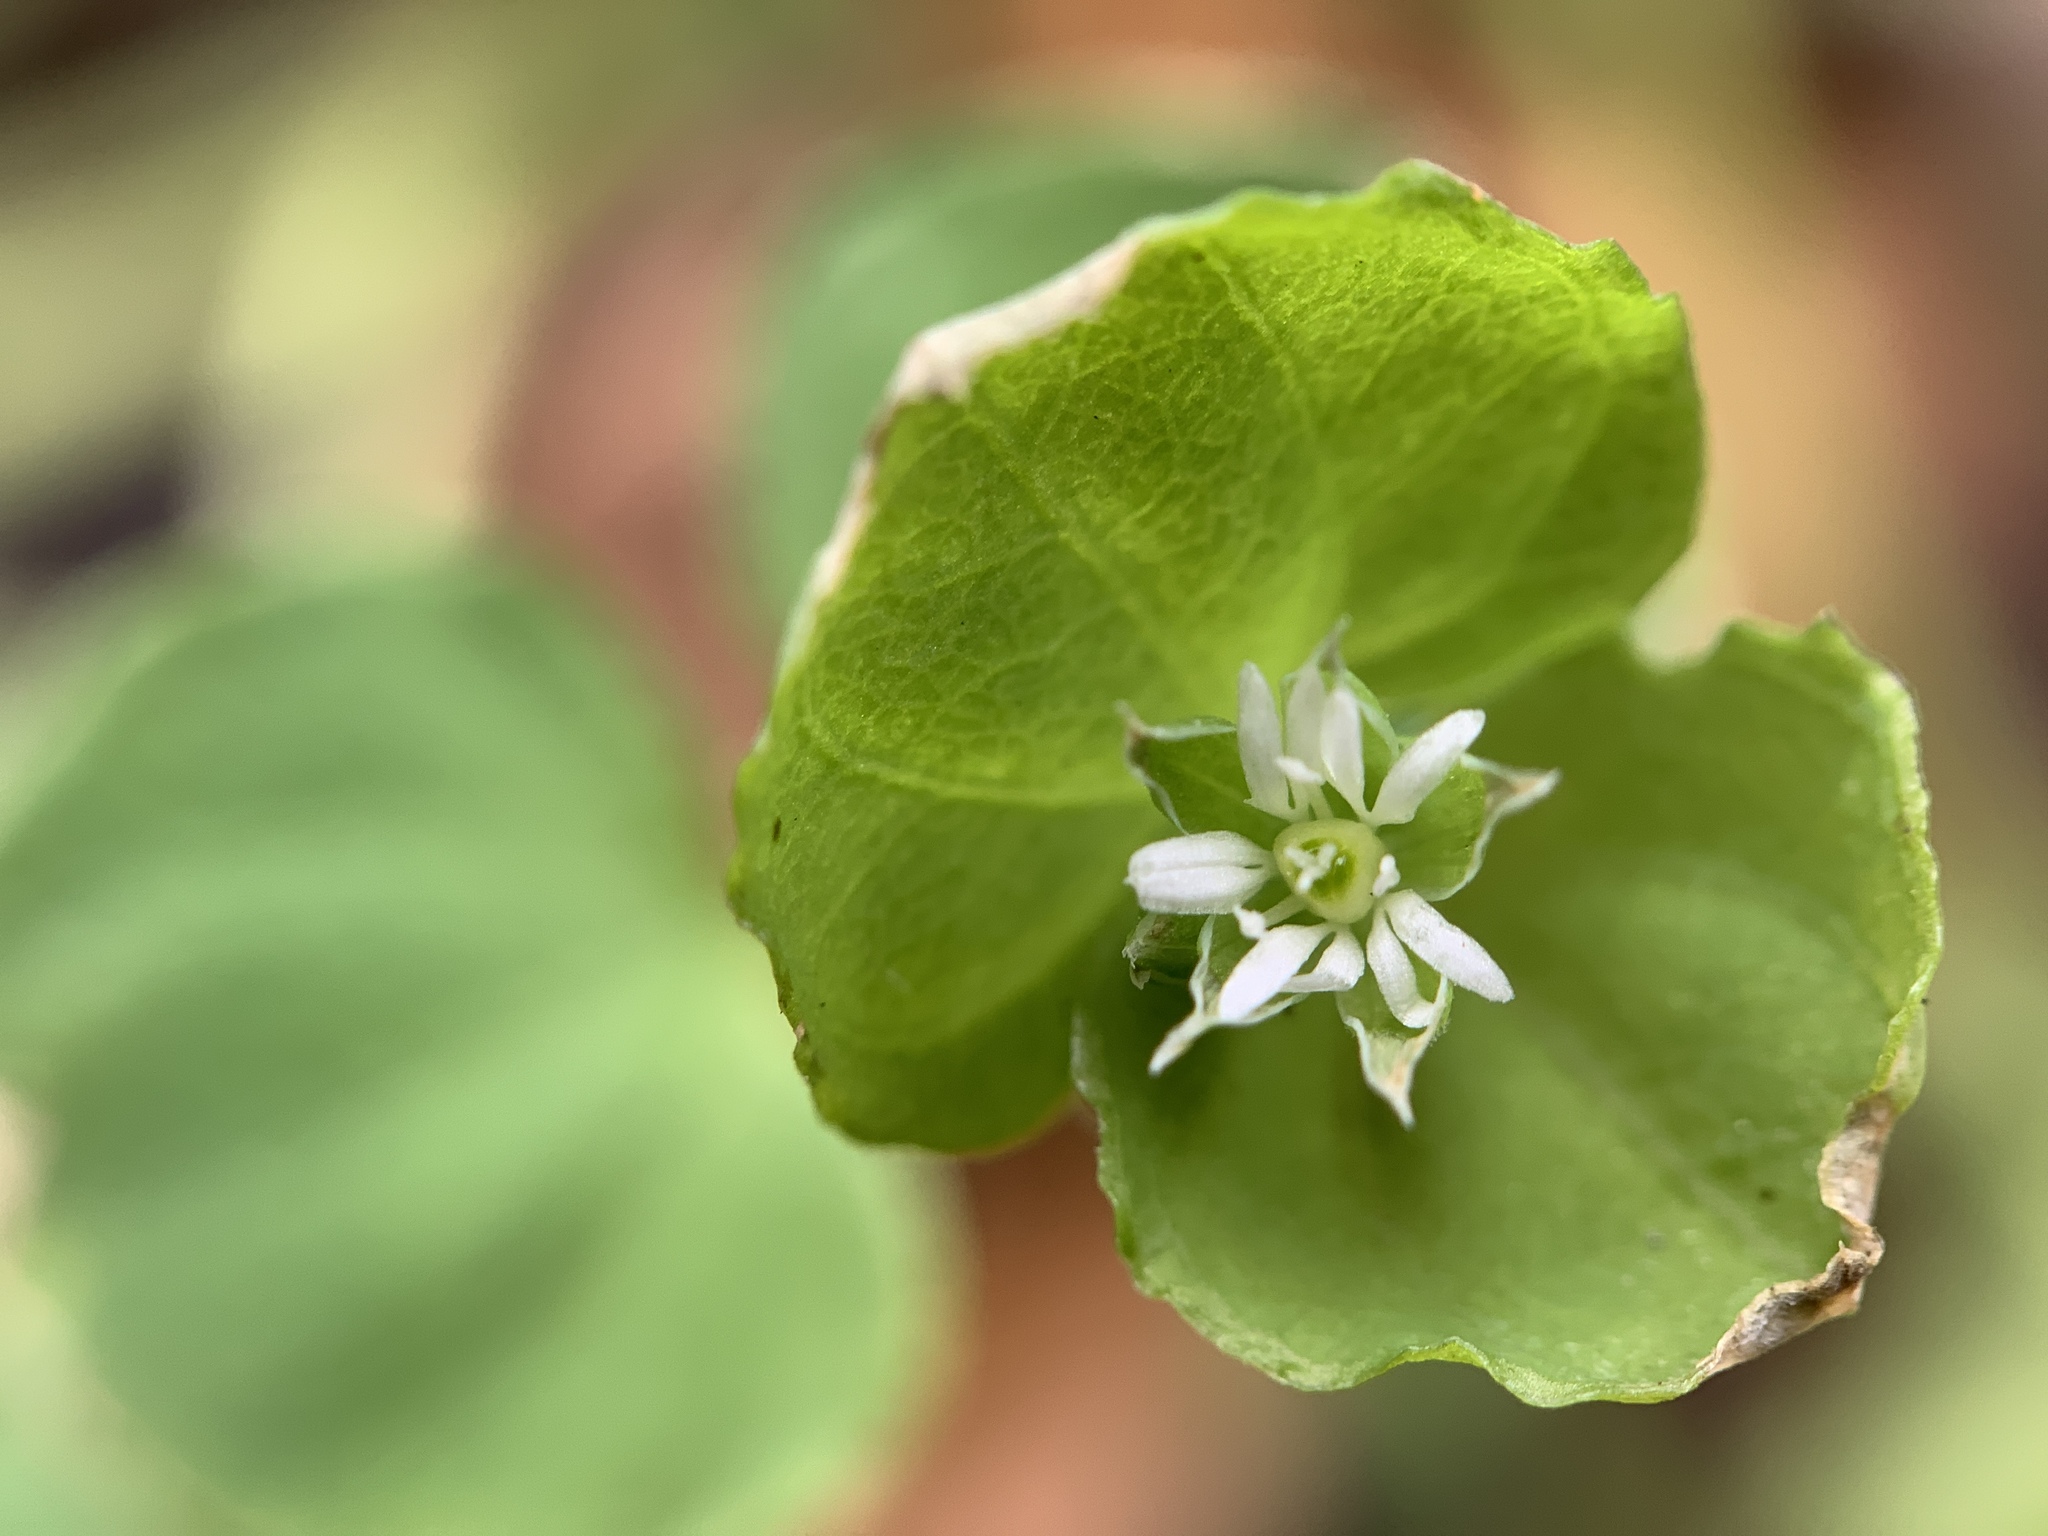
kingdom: Plantae
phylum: Tracheophyta
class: Magnoliopsida
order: Caryophyllales
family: Caryophyllaceae
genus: Drymaria
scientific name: Drymaria cordata
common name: Whitesnow
